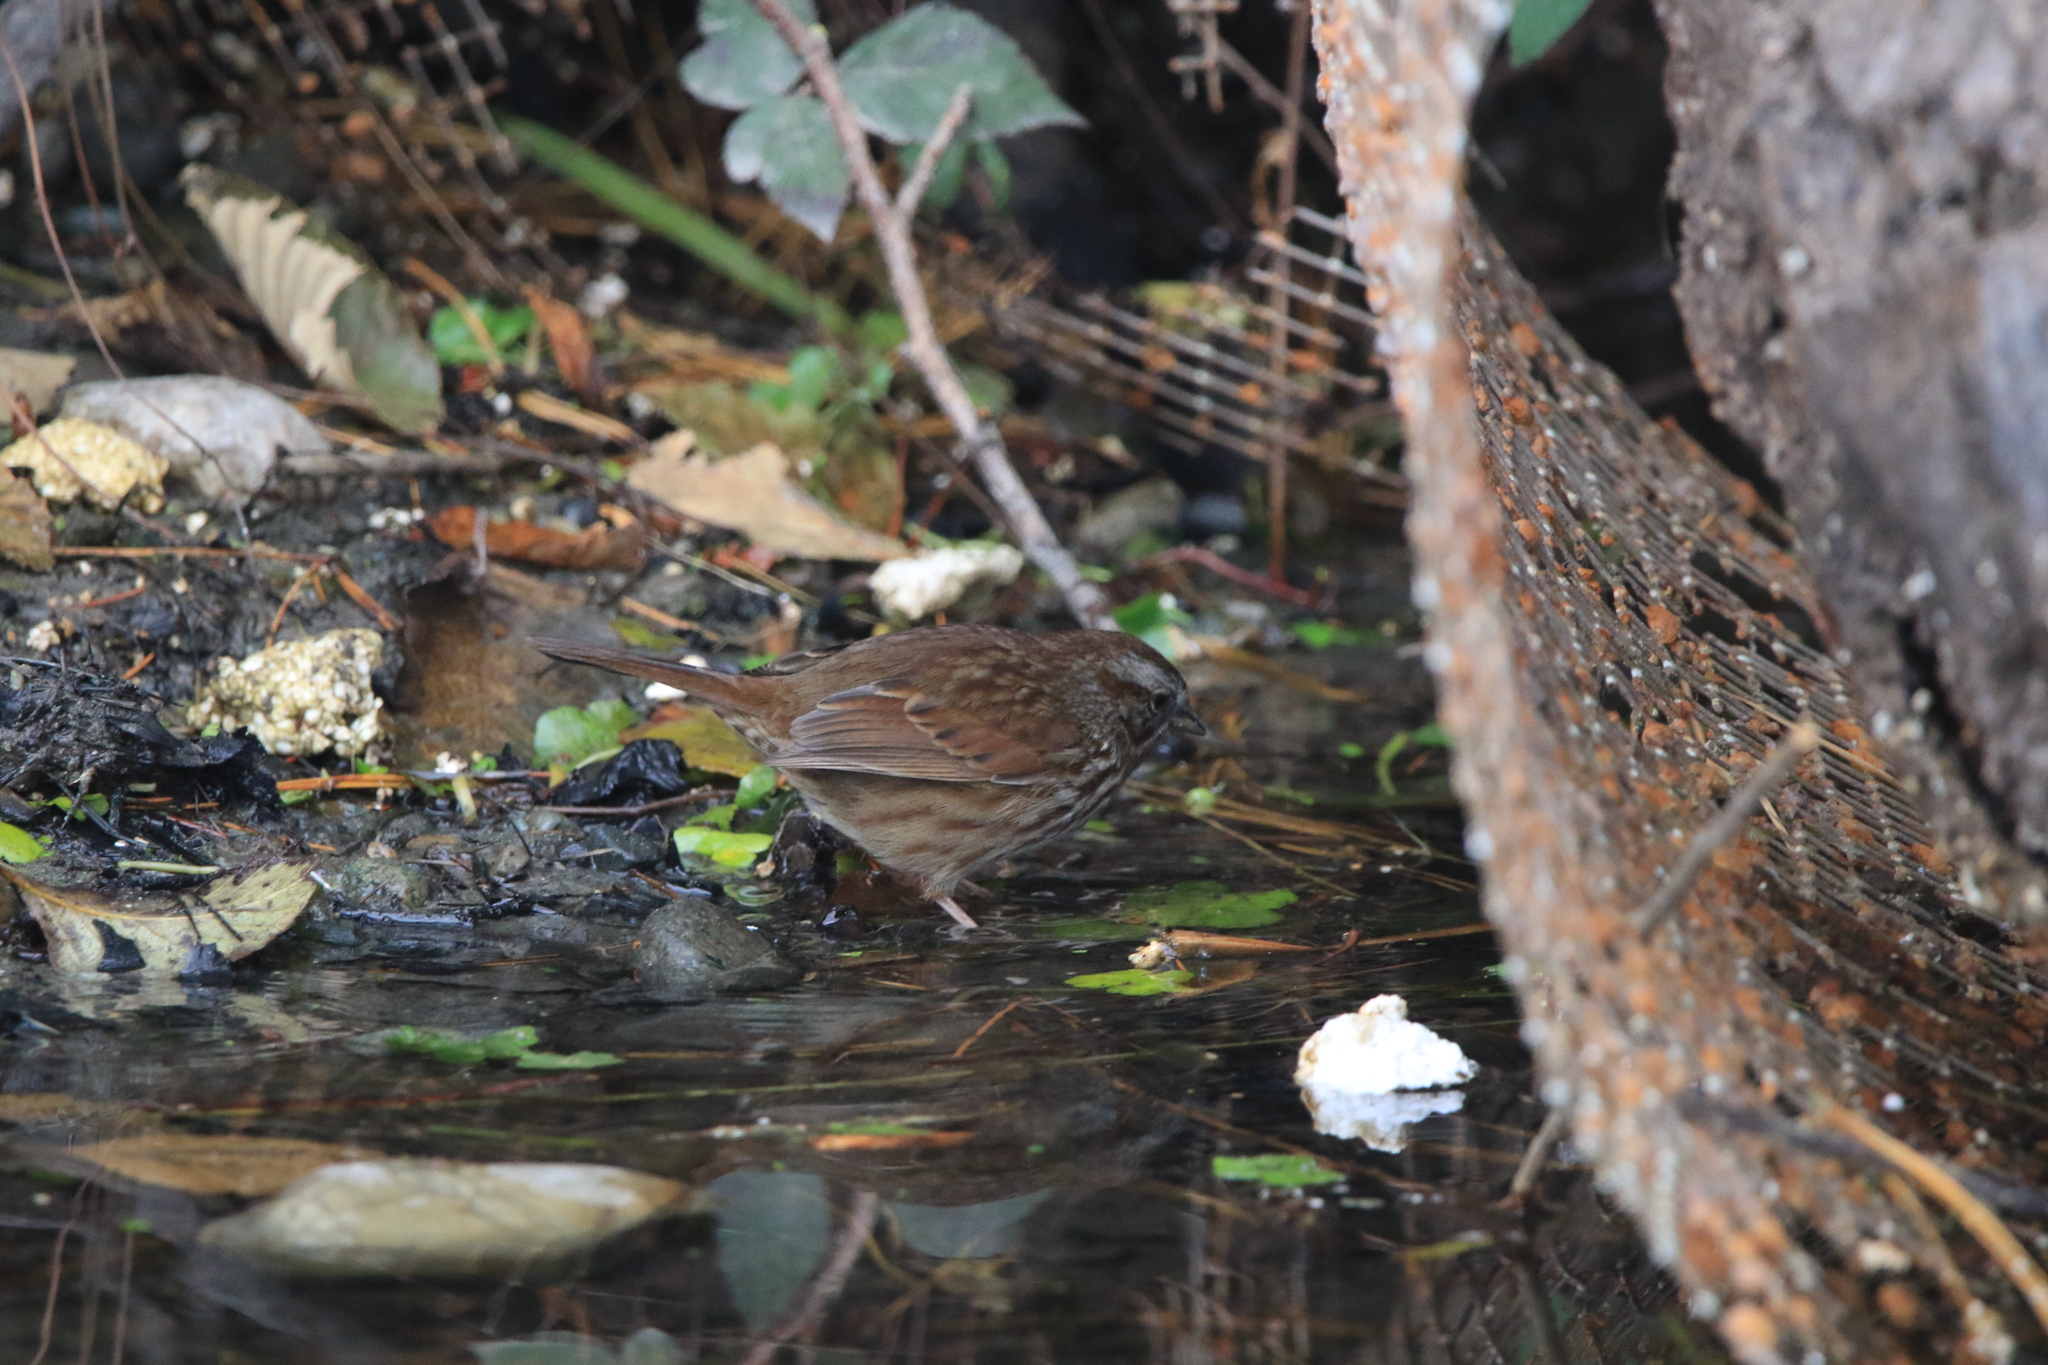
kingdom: Animalia
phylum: Chordata
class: Aves
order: Passeriformes
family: Passerellidae
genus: Melospiza
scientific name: Melospiza melodia
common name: Song sparrow
